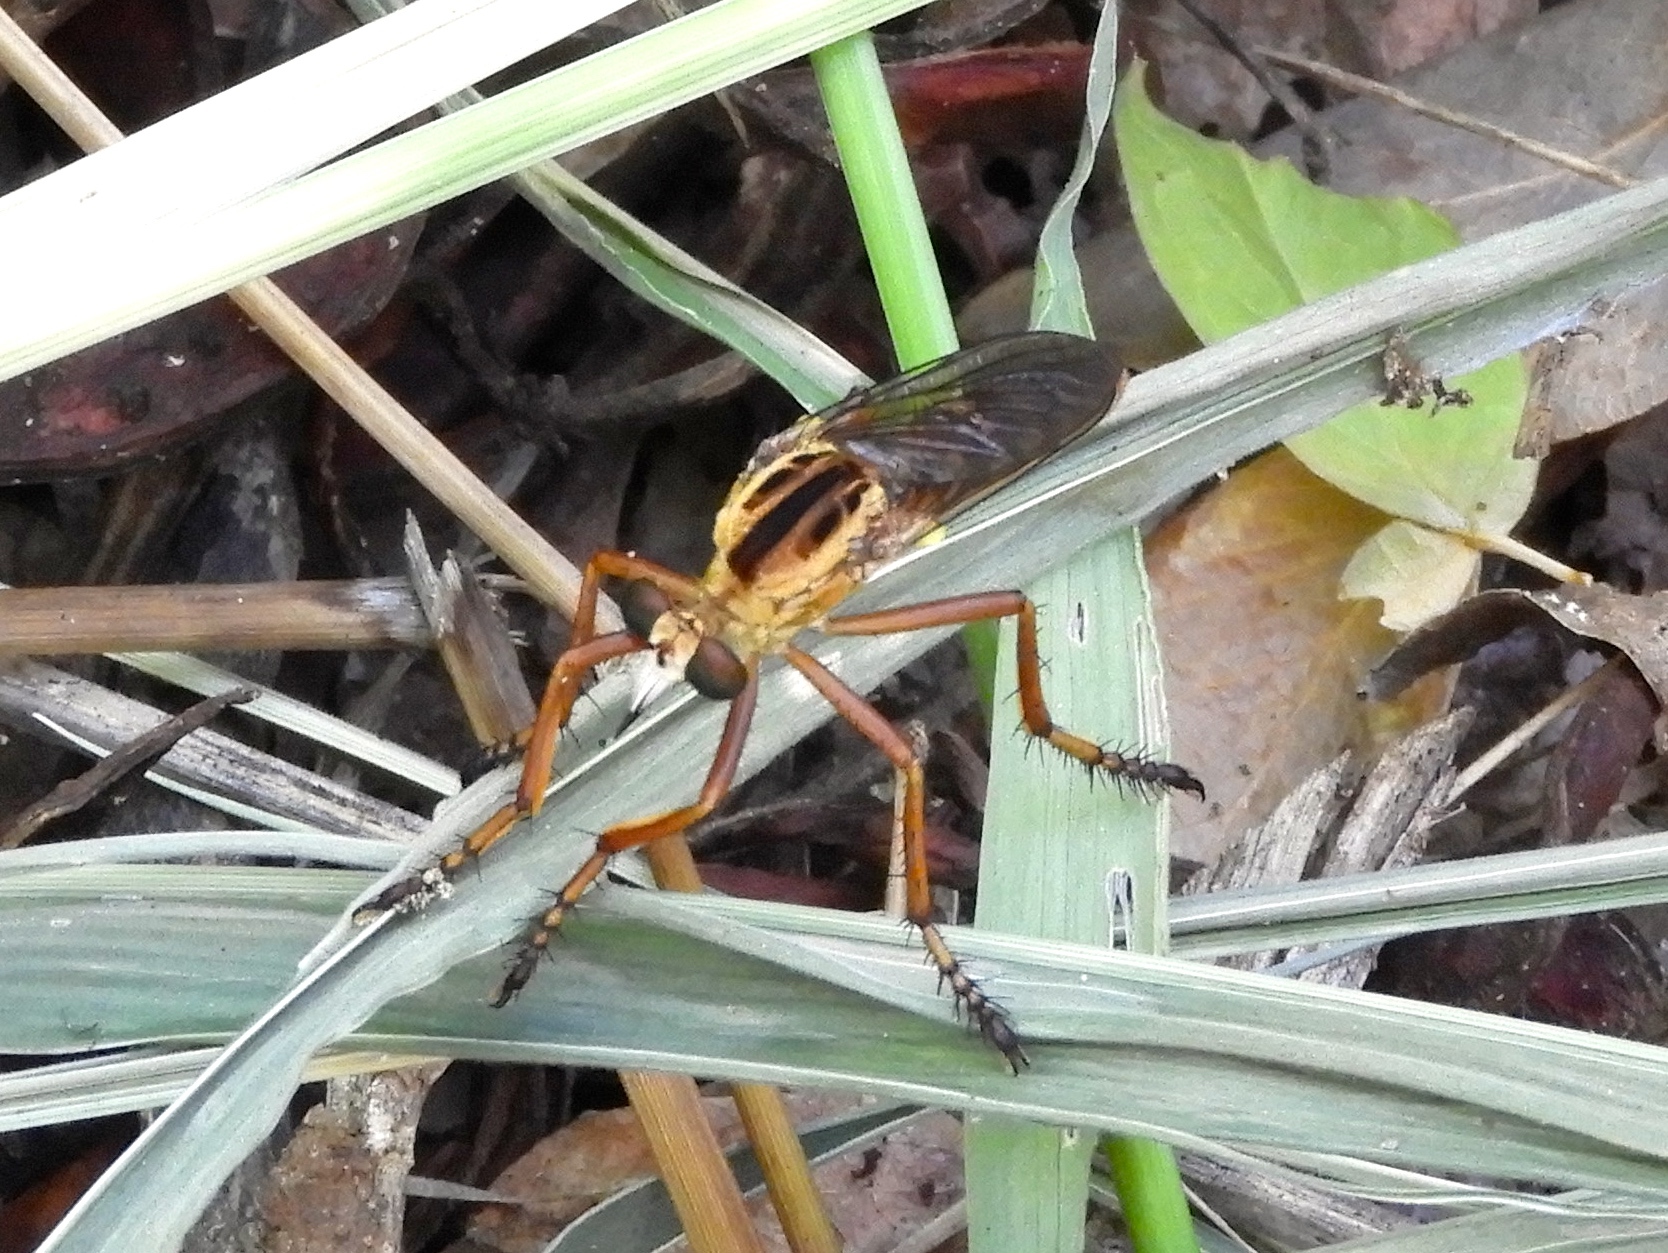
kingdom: Animalia
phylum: Arthropoda
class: Insecta
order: Diptera
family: Asilidae
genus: Diogmites
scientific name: Diogmites
